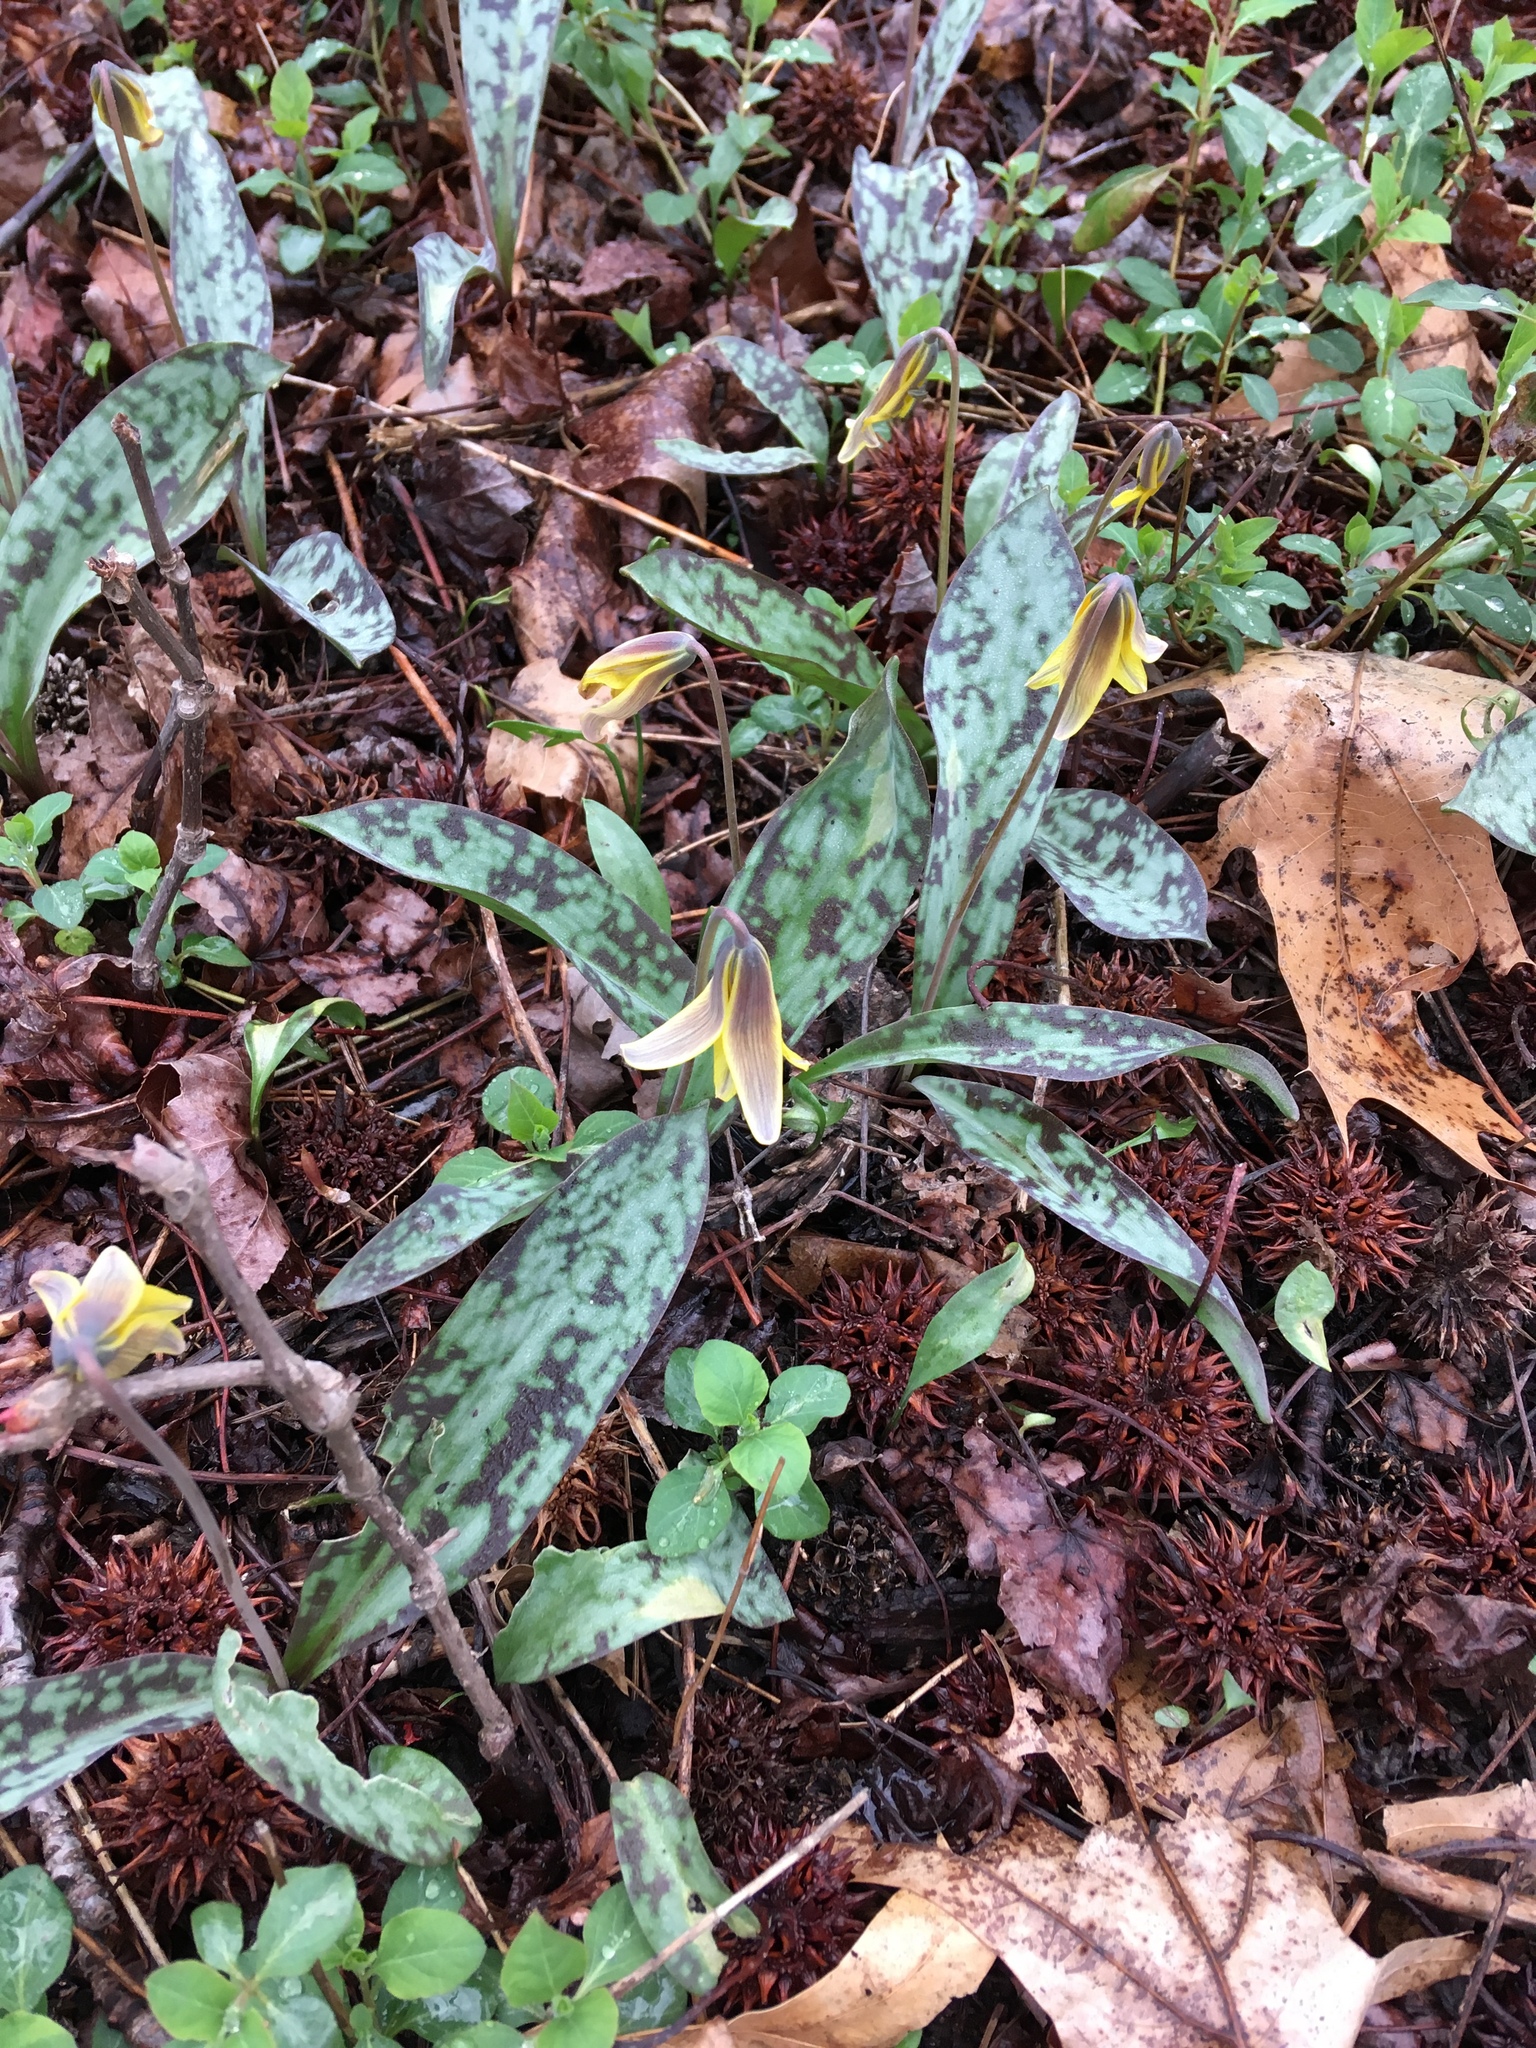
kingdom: Plantae
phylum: Tracheophyta
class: Liliopsida
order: Liliales
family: Liliaceae
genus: Erythronium
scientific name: Erythronium americanum
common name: Yellow adder's-tongue
